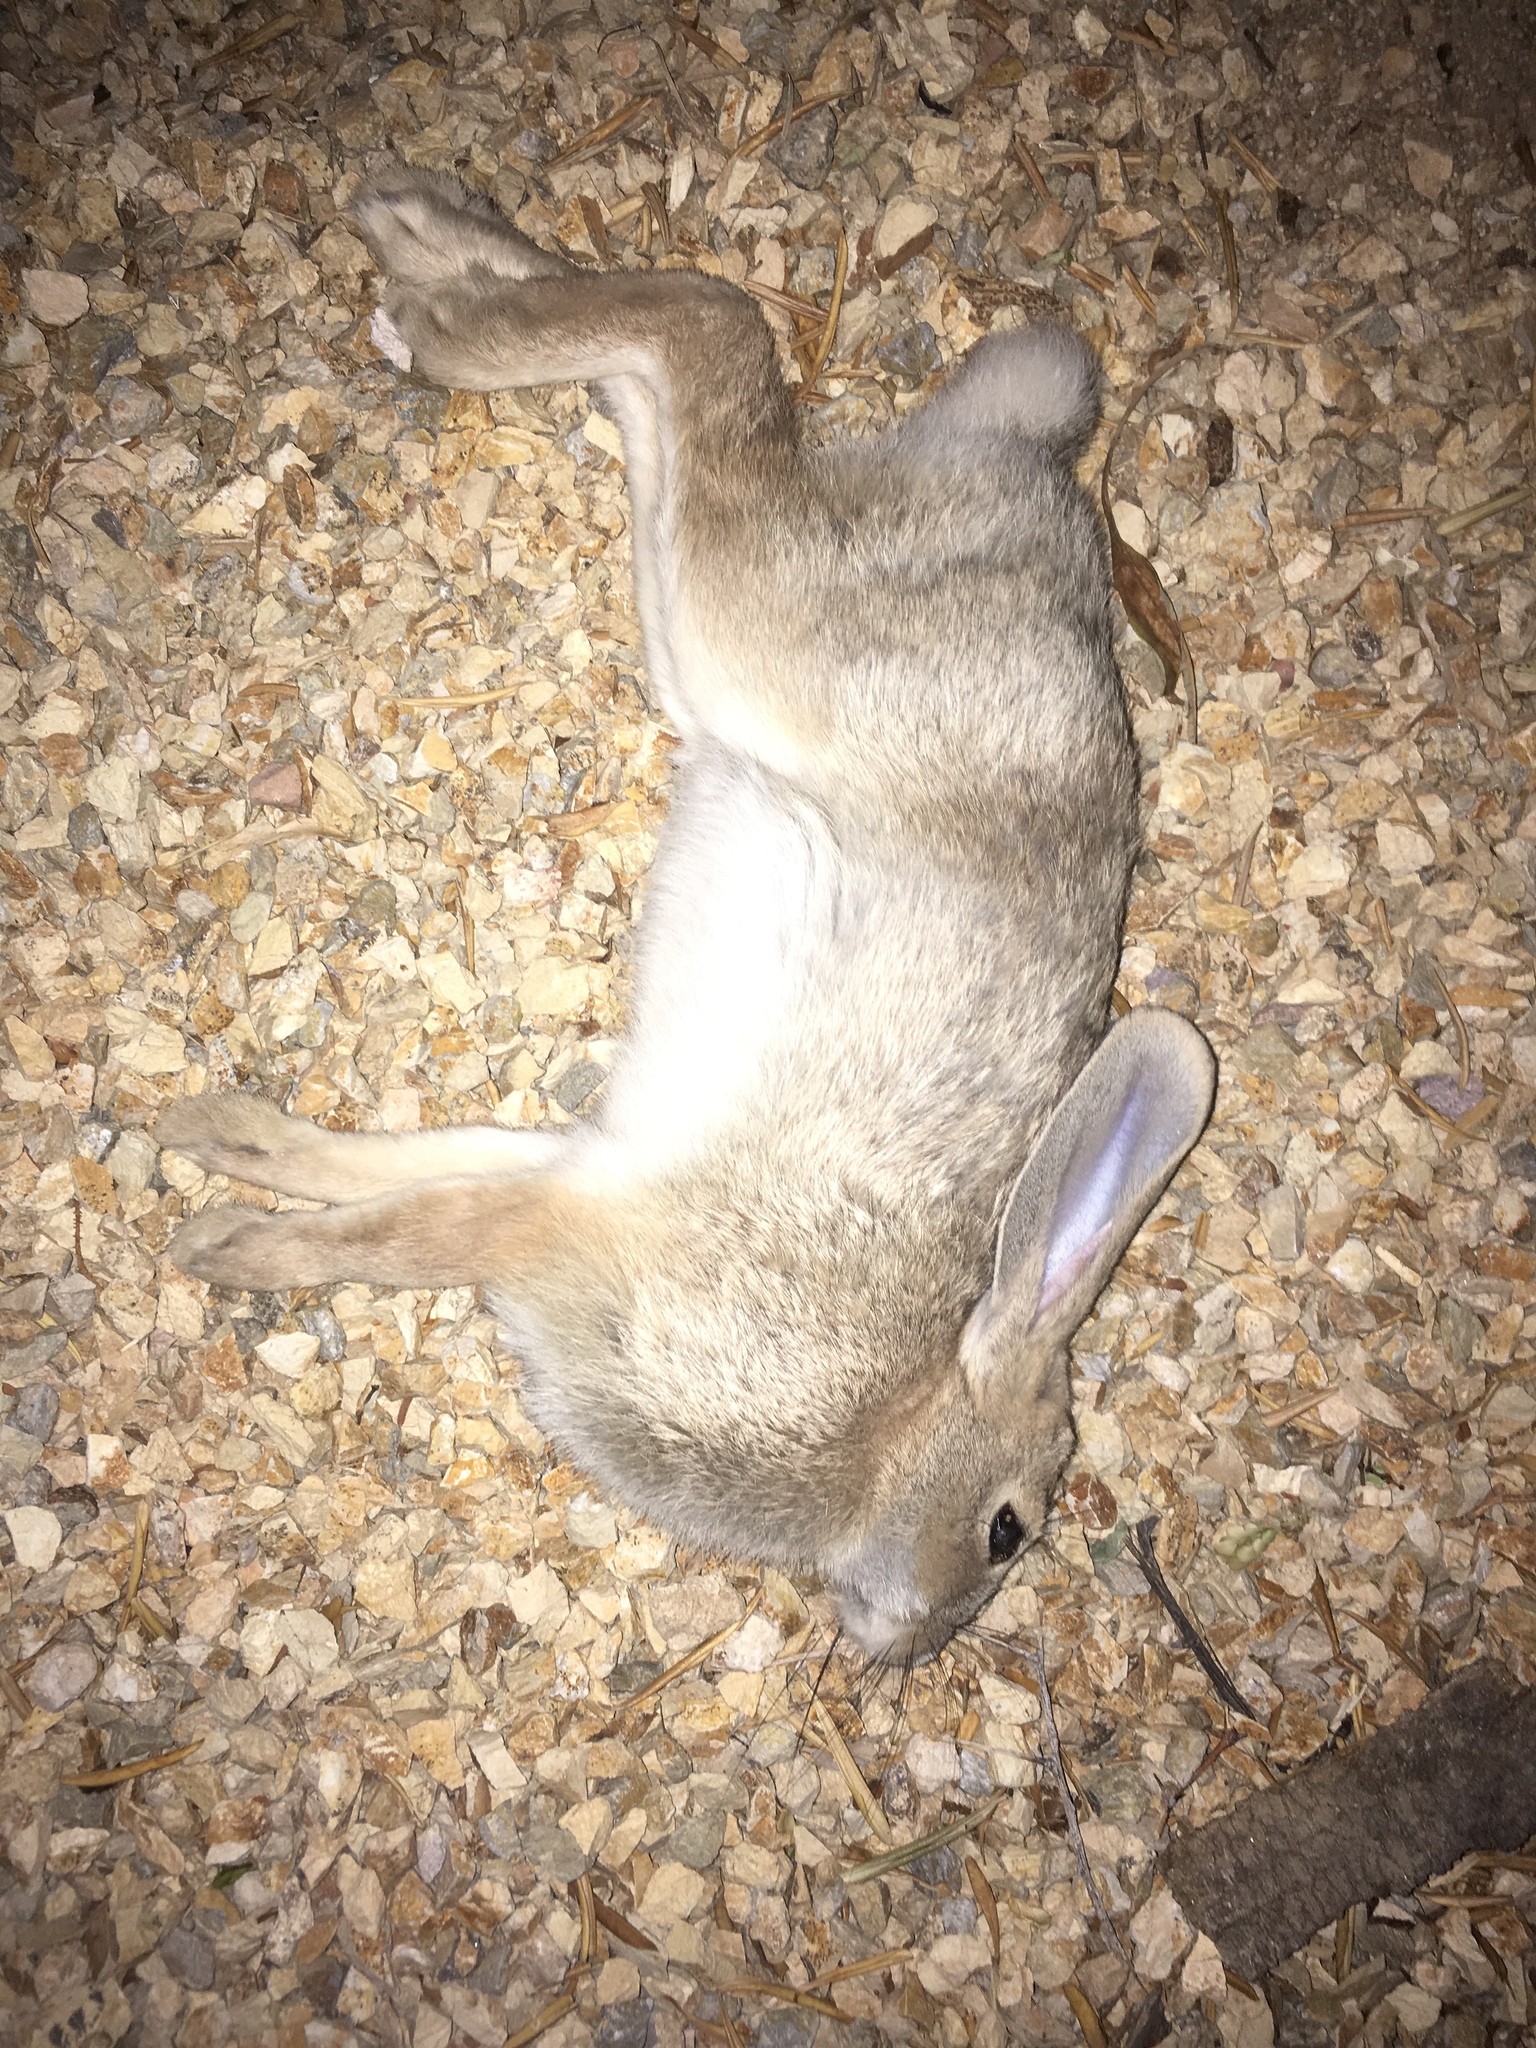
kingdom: Animalia
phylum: Chordata
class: Mammalia
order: Lagomorpha
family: Leporidae
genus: Sylvilagus
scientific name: Sylvilagus audubonii
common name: Desert cottontail
